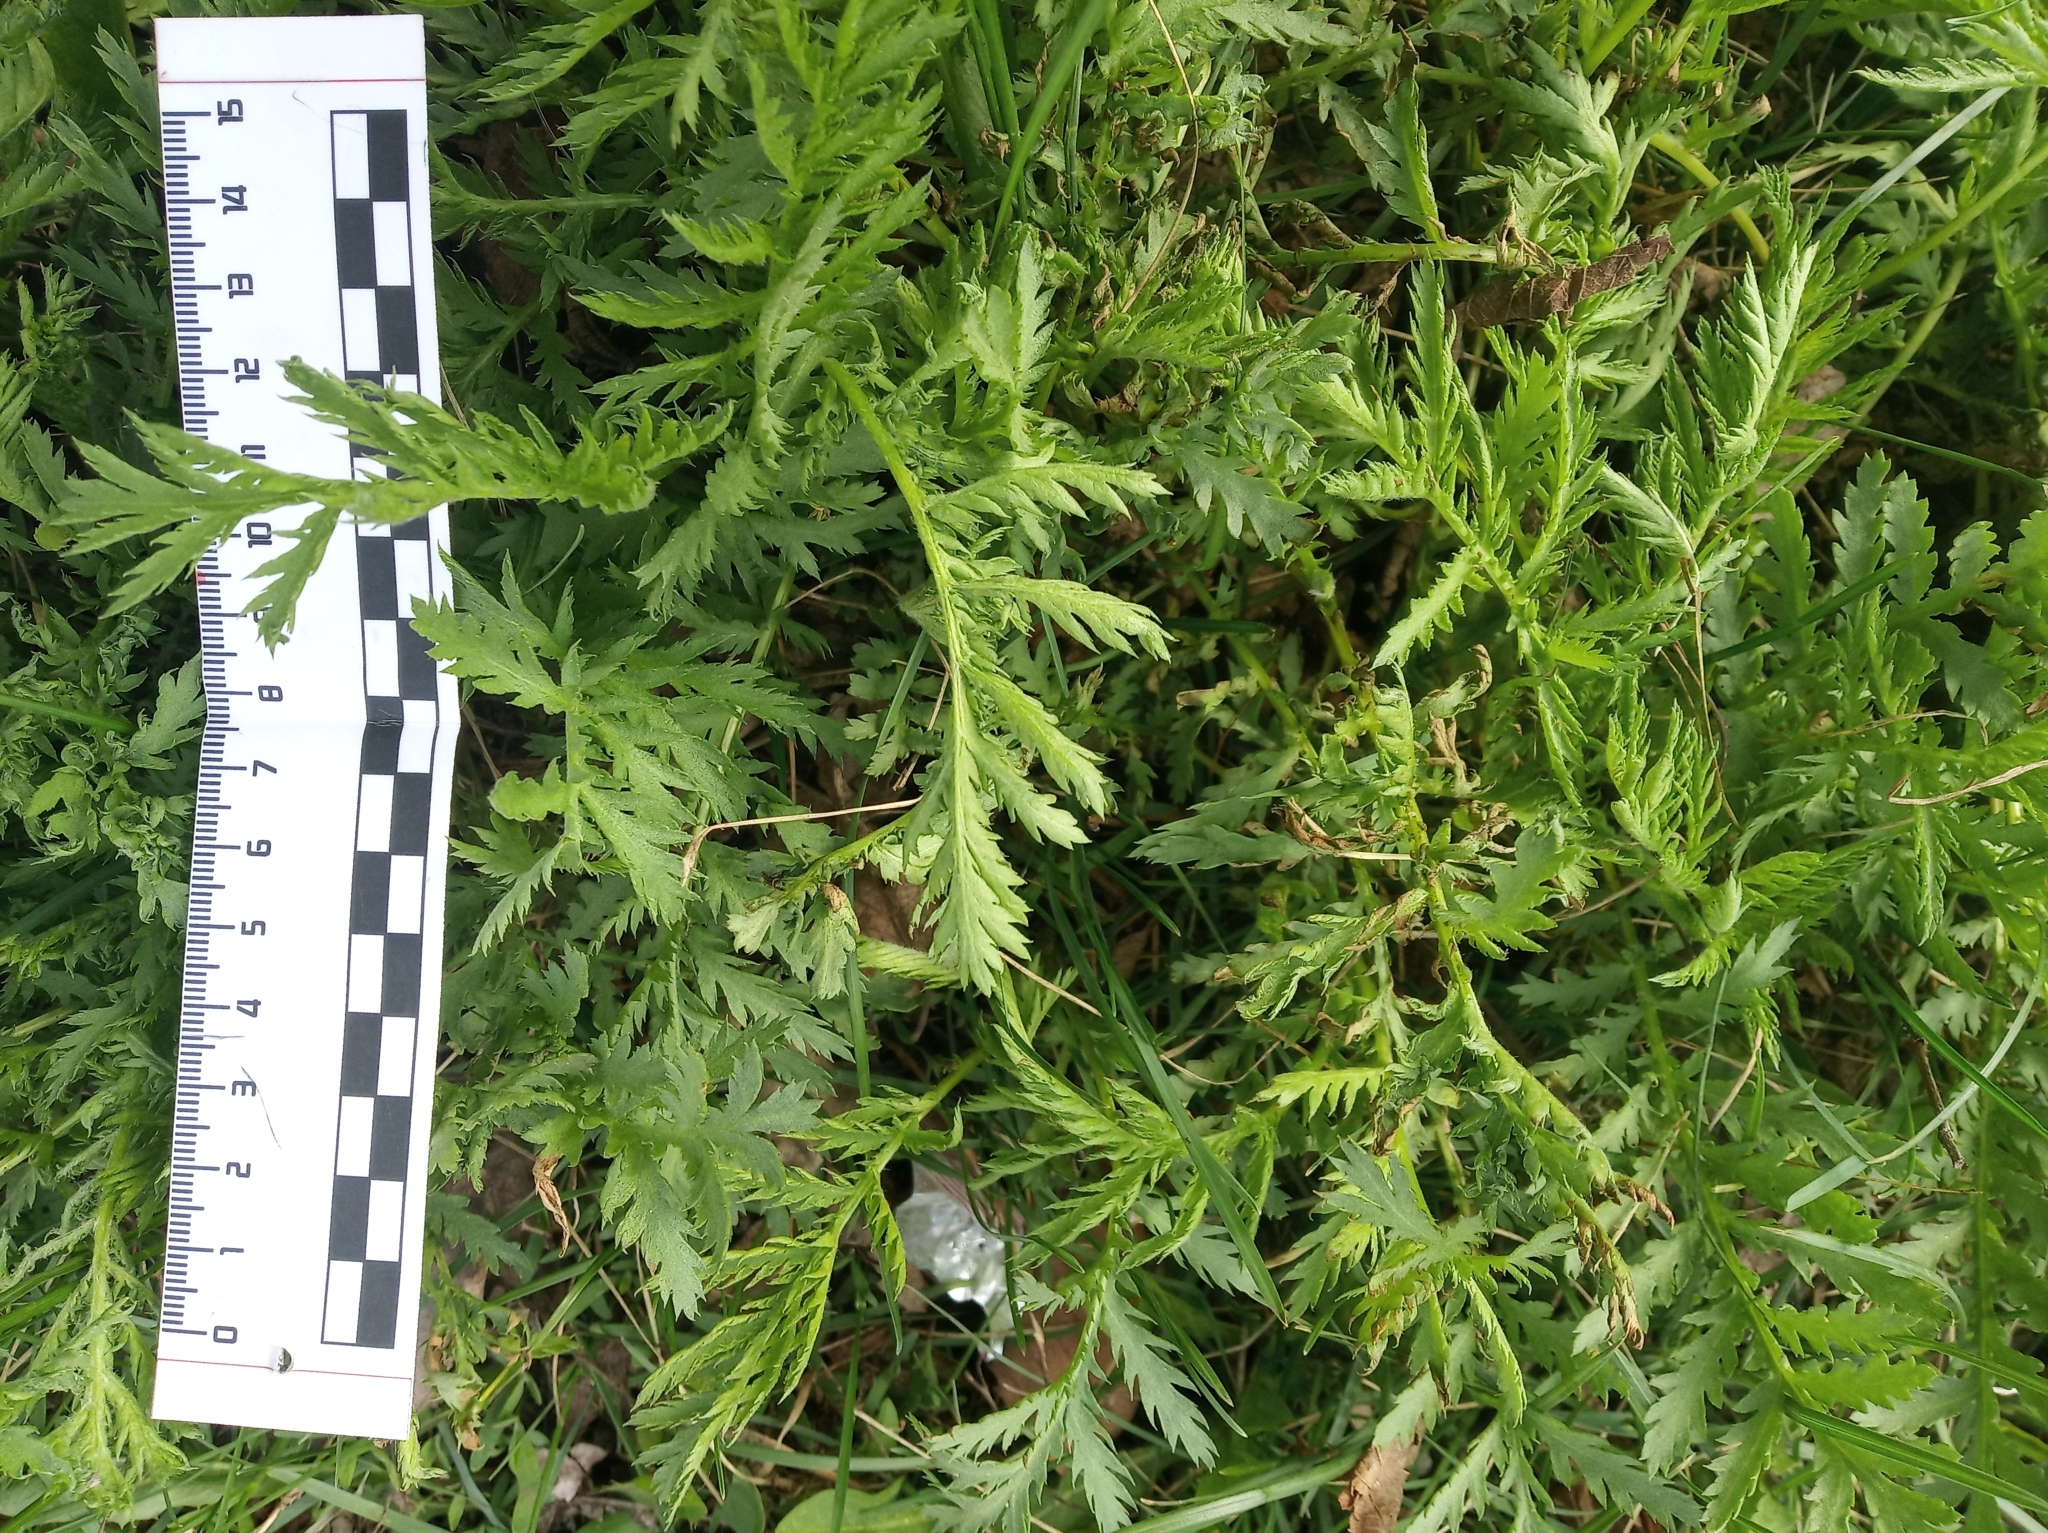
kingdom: Plantae
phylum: Tracheophyta
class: Magnoliopsida
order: Asterales
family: Asteraceae
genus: Tanacetum
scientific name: Tanacetum vulgare
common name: Common tansy
